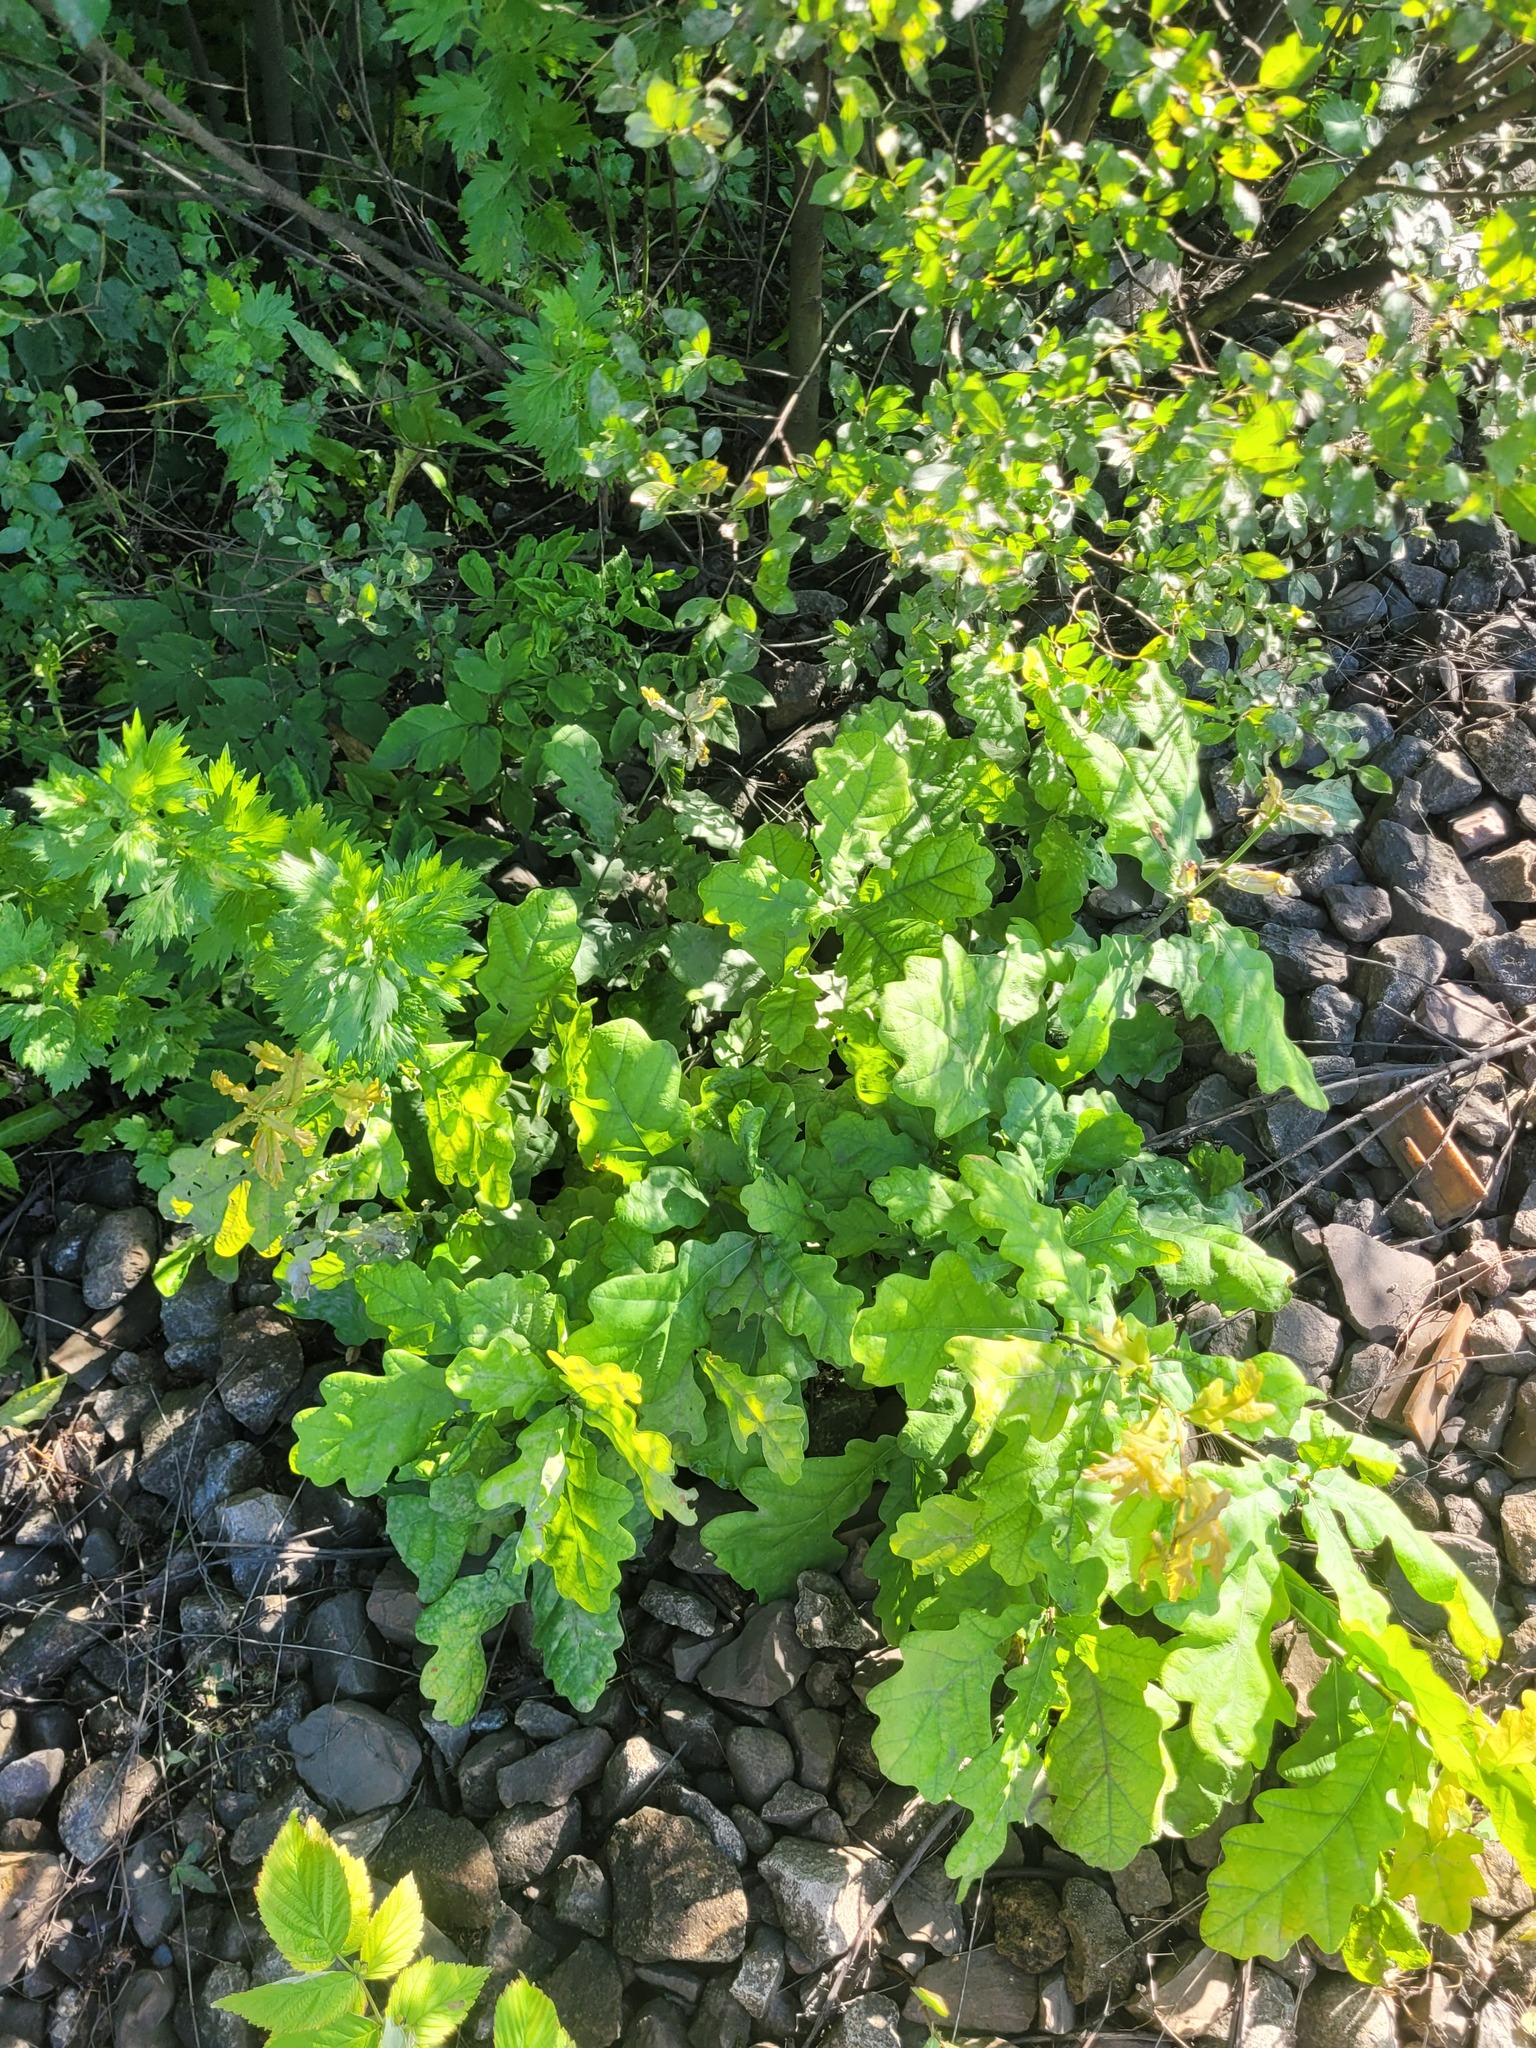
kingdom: Plantae
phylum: Tracheophyta
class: Magnoliopsida
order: Fagales
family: Fagaceae
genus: Quercus
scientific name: Quercus robur
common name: Pedunculate oak
